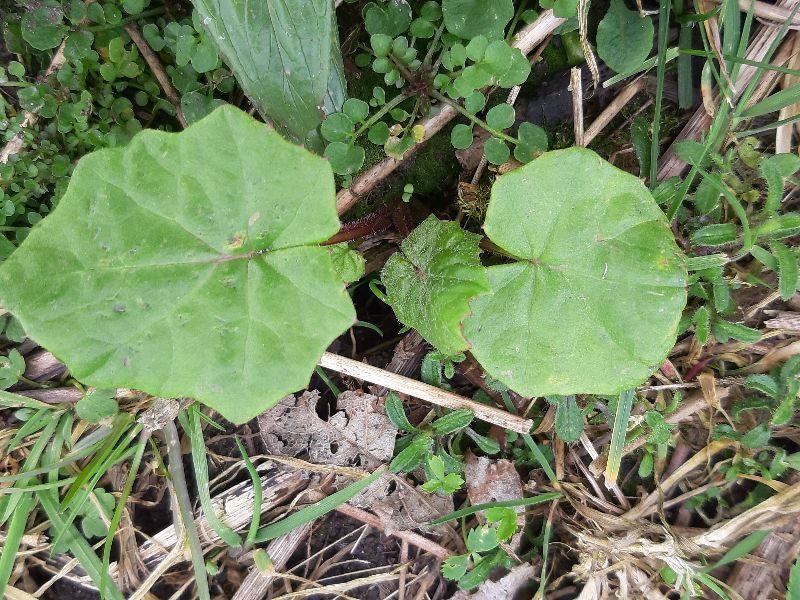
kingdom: Plantae
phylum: Tracheophyta
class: Magnoliopsida
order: Asterales
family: Asteraceae
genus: Tussilago
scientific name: Tussilago farfara
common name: Coltsfoot
